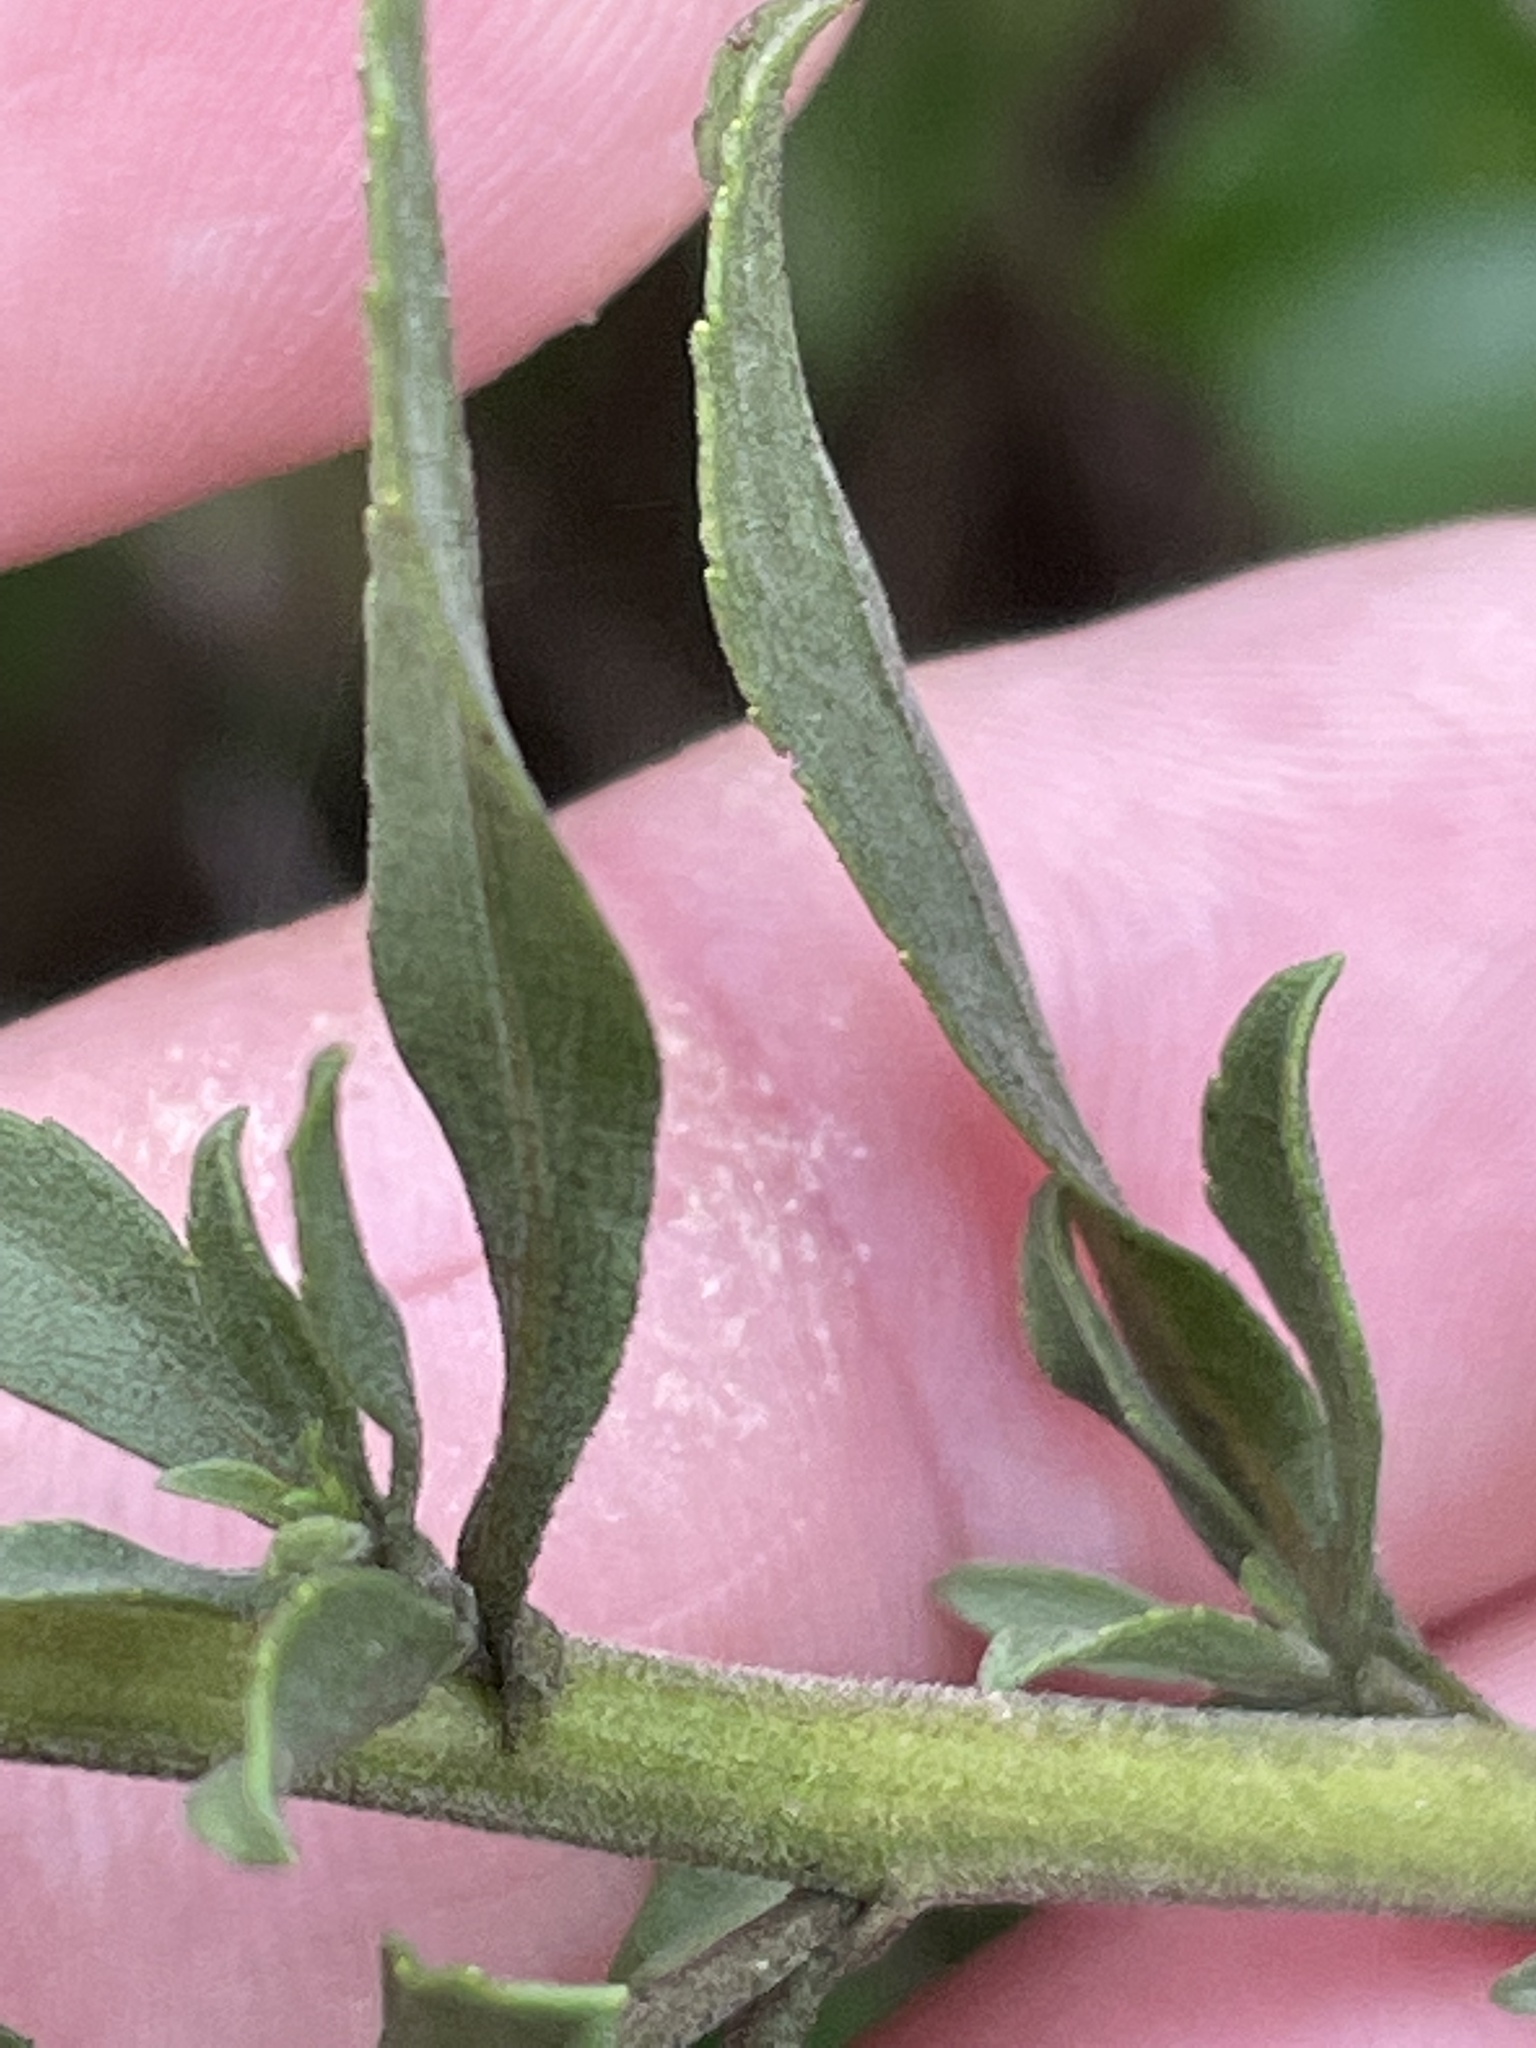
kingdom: Plantae
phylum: Tracheophyta
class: Magnoliopsida
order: Asterales
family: Asteraceae
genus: Solidago
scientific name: Solidago nemoralis
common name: Grey goldenrod
